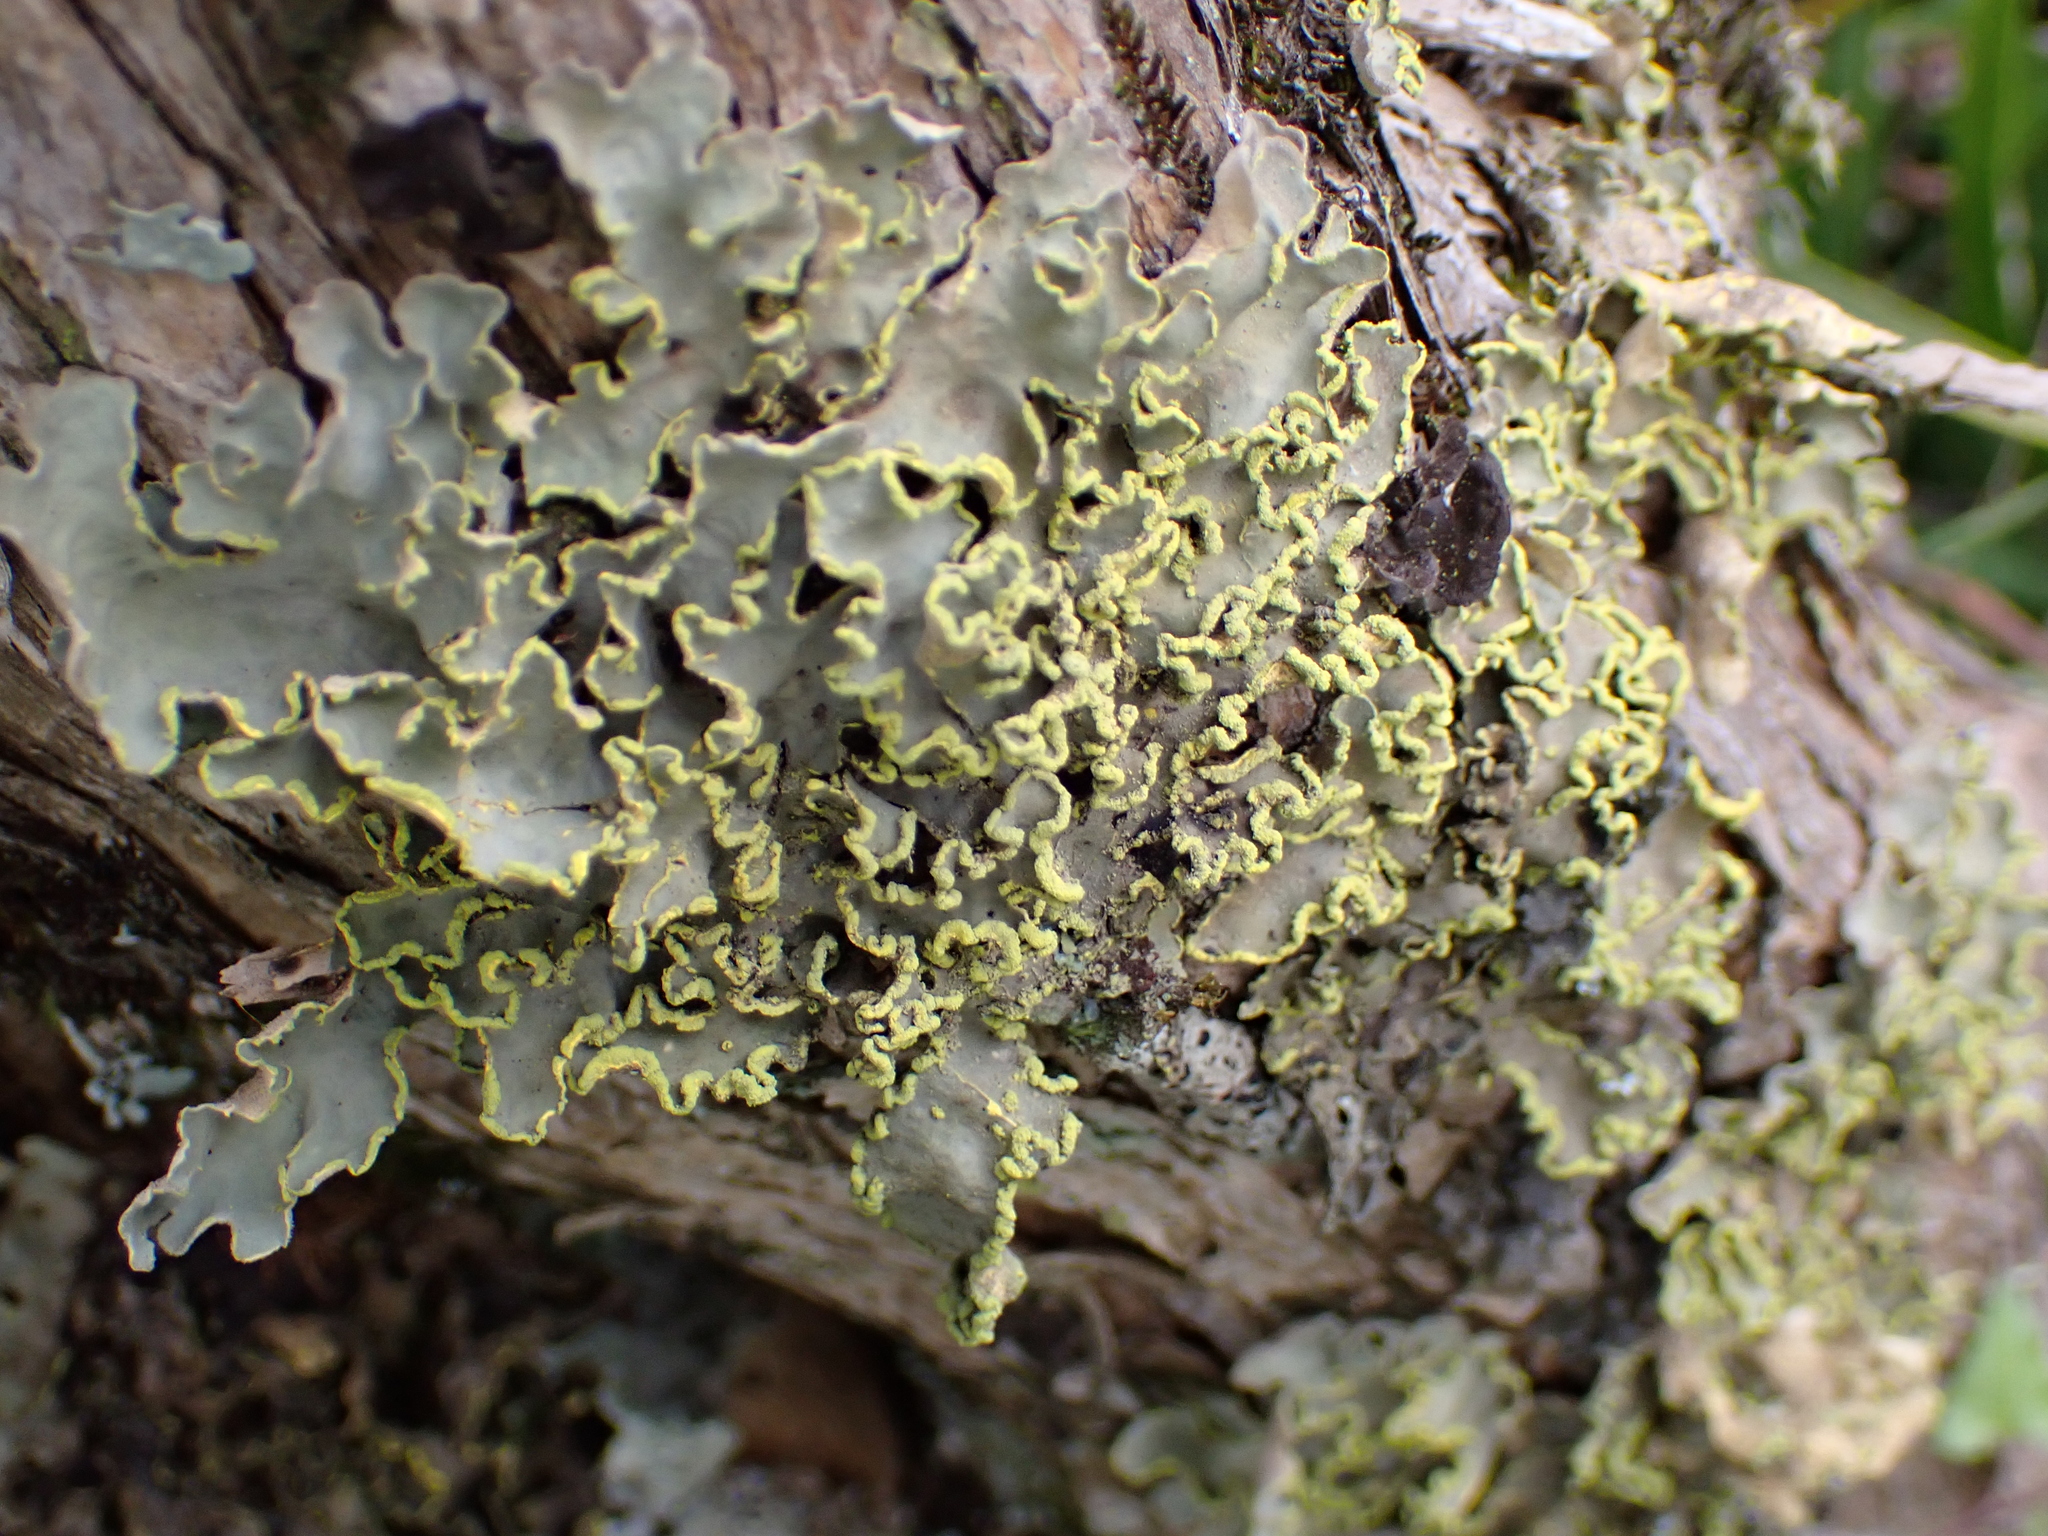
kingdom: Fungi
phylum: Ascomycota
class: Lecanoromycetes
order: Peltigerales
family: Lobariaceae
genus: Pseudocyphellaria
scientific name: Pseudocyphellaria aurata
